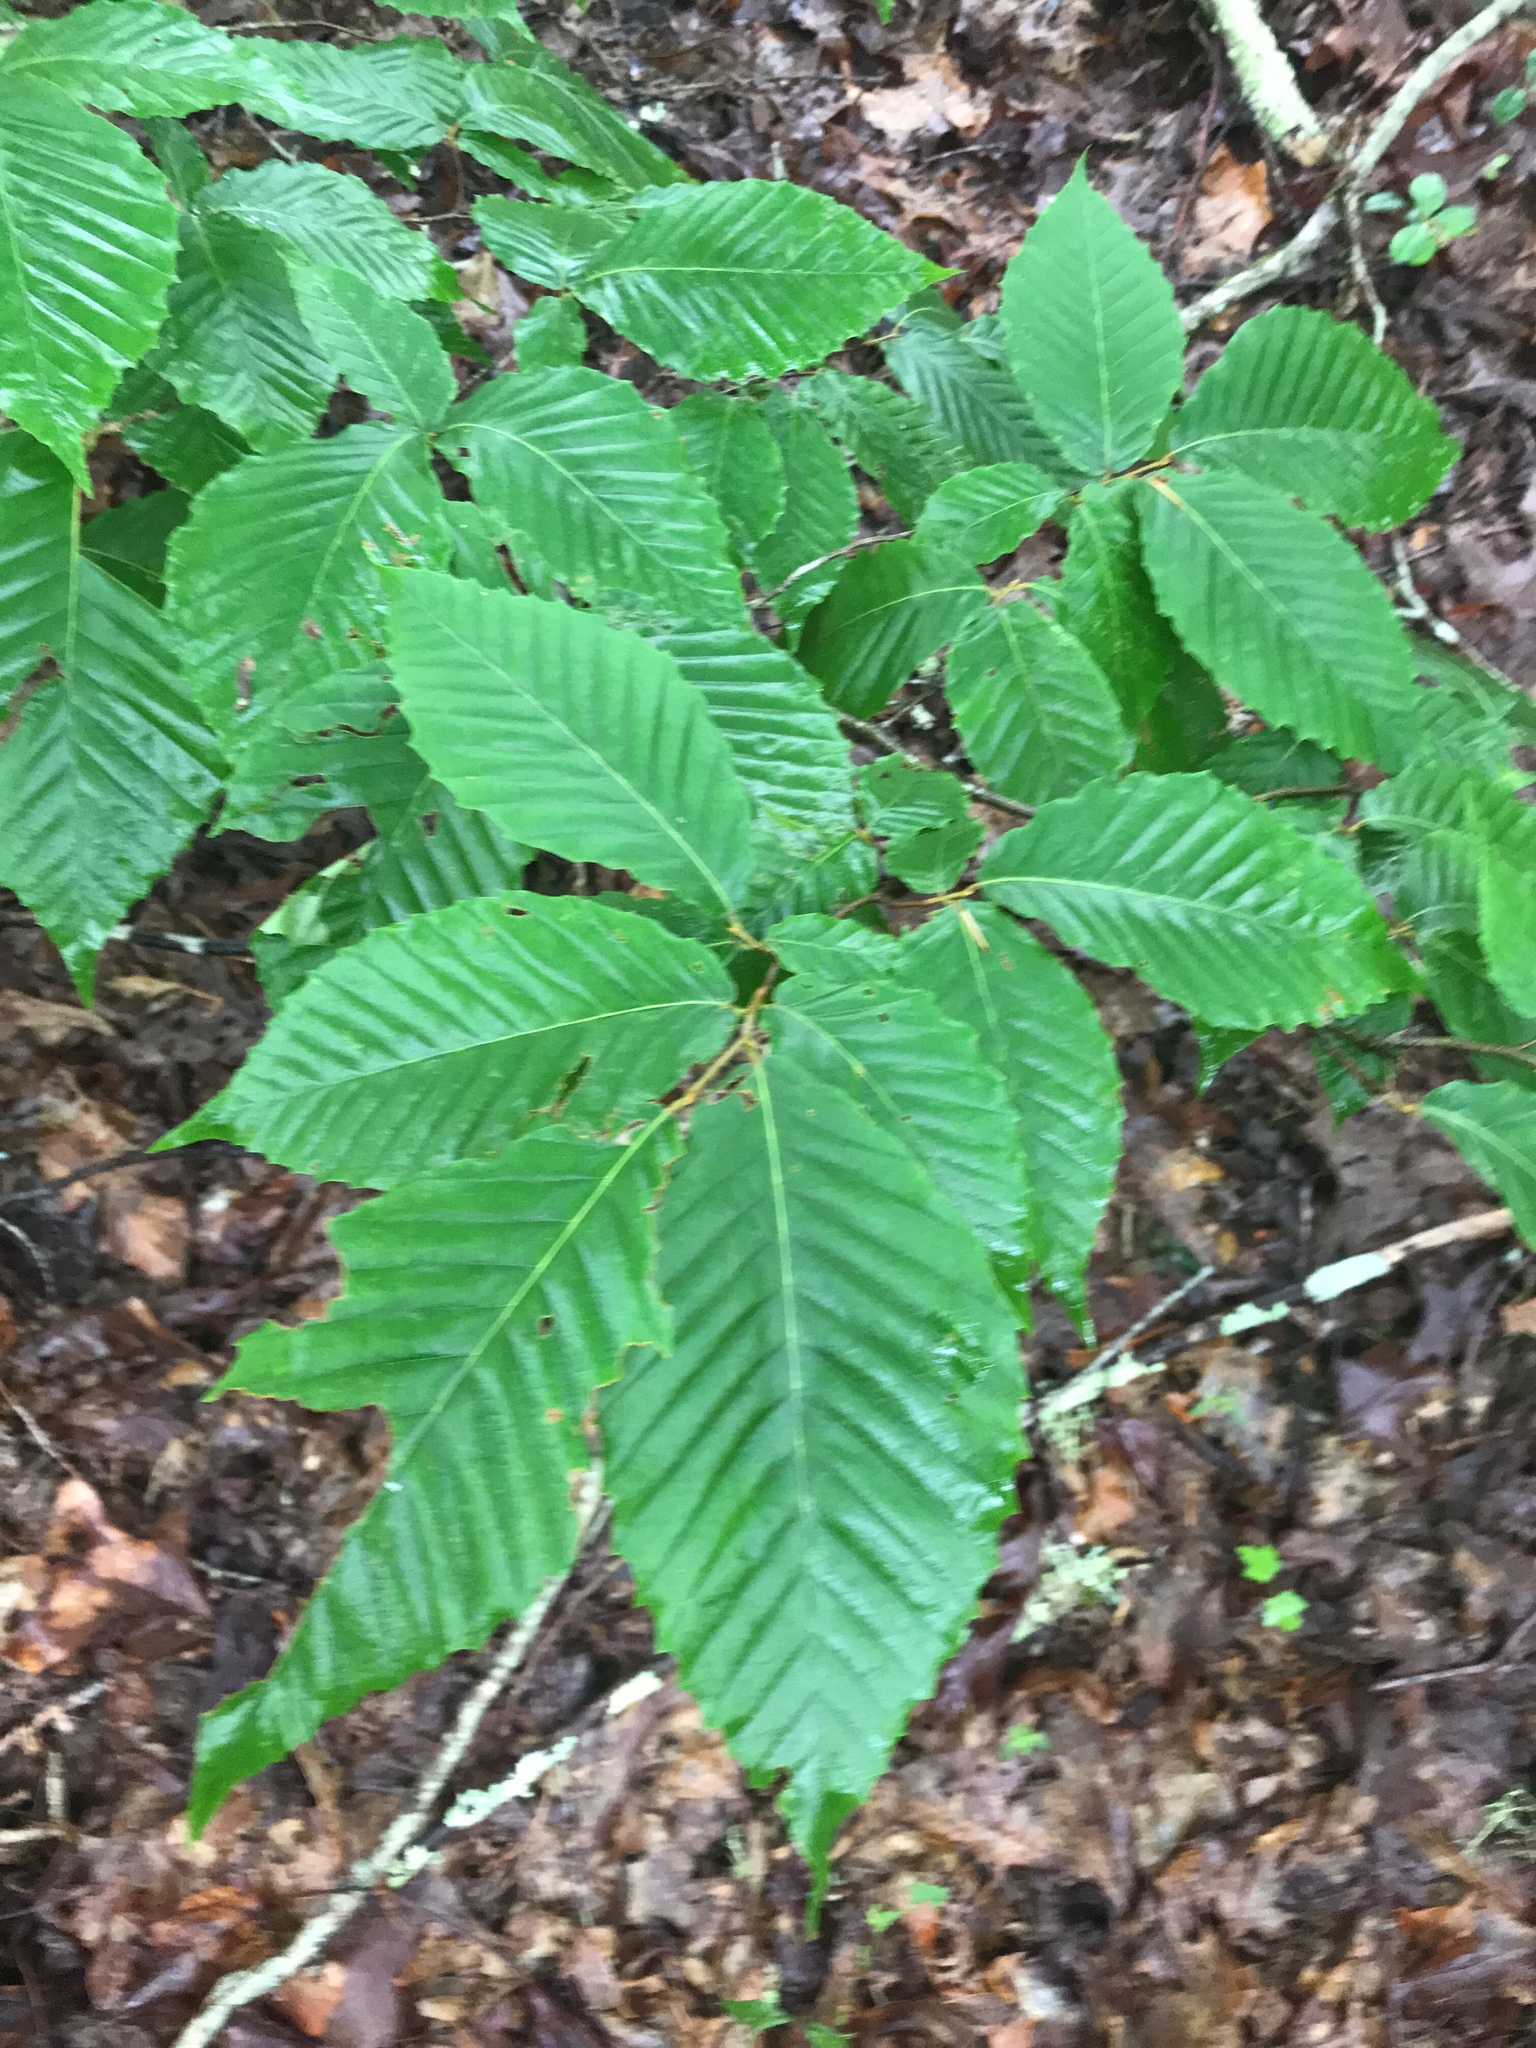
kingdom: Plantae
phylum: Tracheophyta
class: Magnoliopsida
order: Fagales
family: Fagaceae
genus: Fagus
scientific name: Fagus grandifolia
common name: American beech
